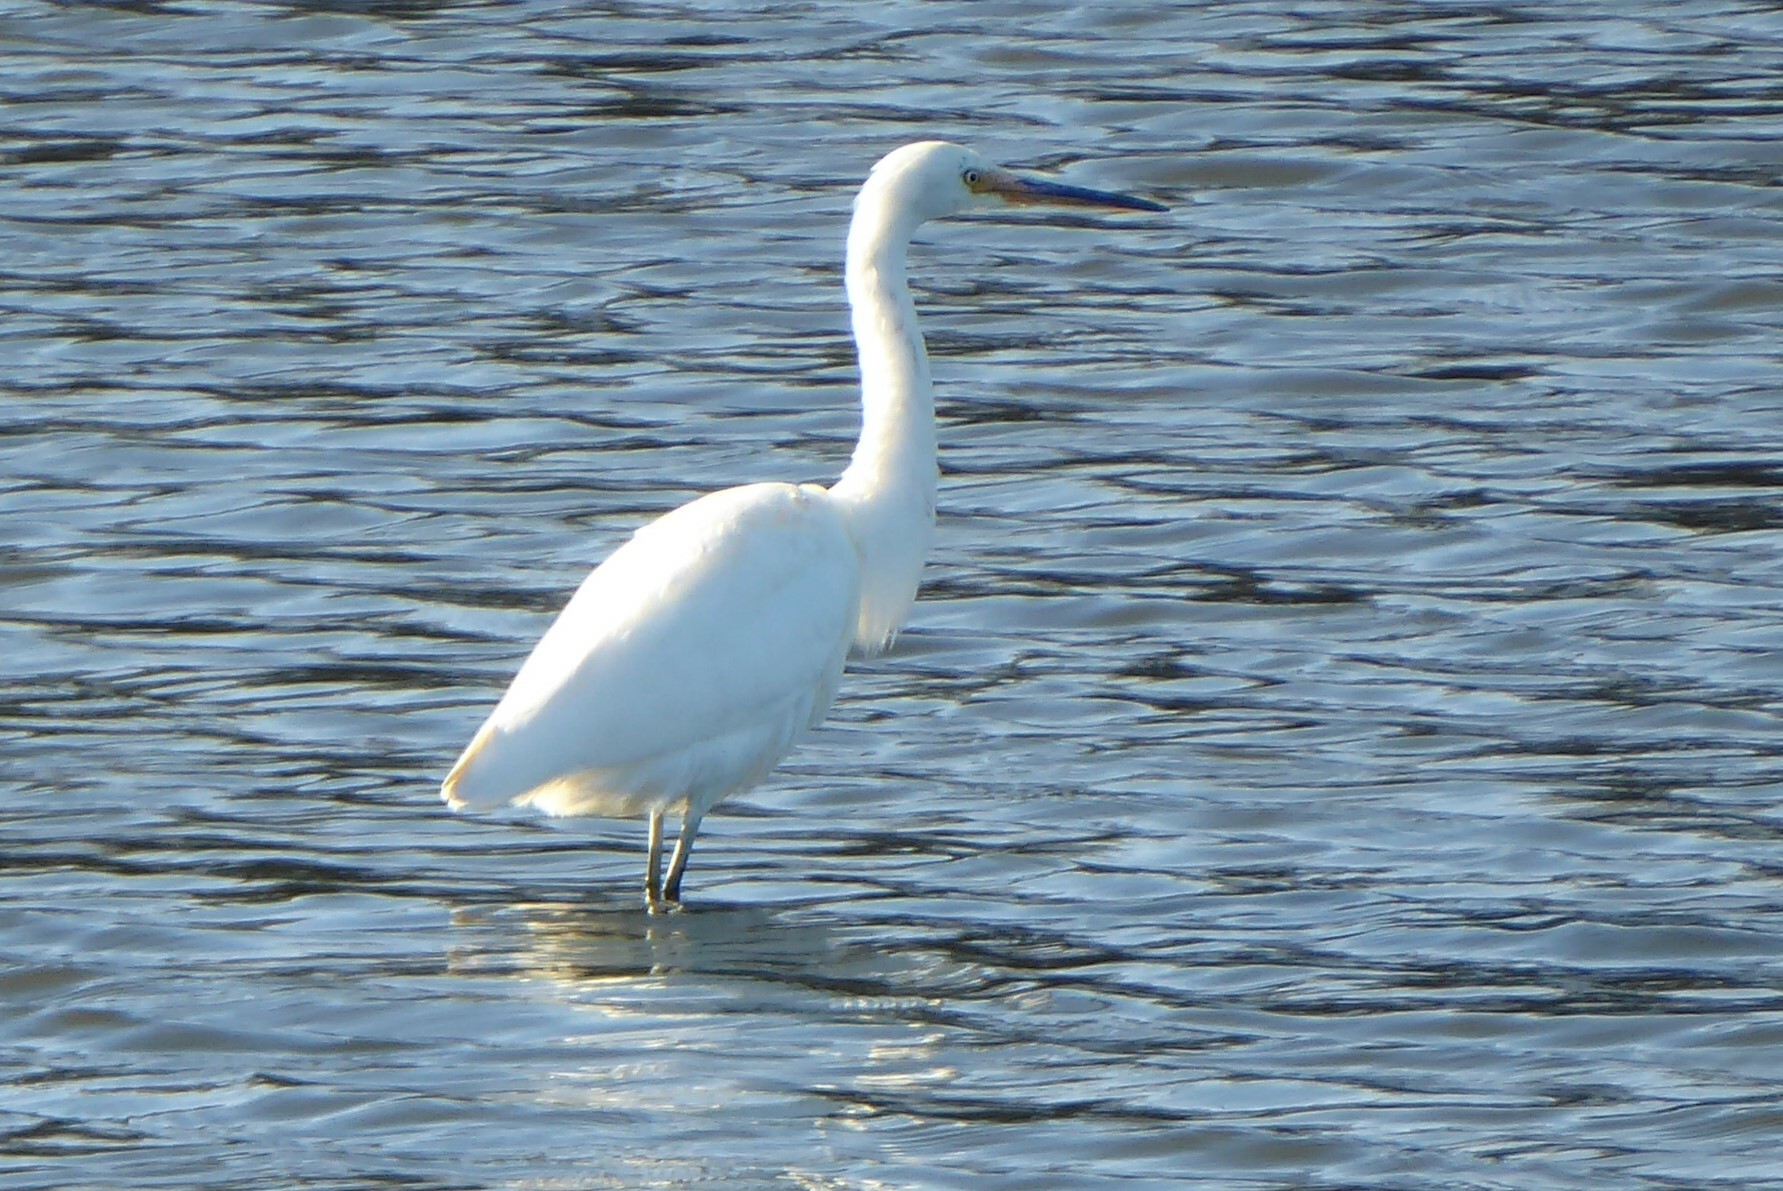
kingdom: Animalia
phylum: Chordata
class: Aves
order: Pelecaniformes
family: Ardeidae
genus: Egretta
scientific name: Egretta garzetta
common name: Little egret
